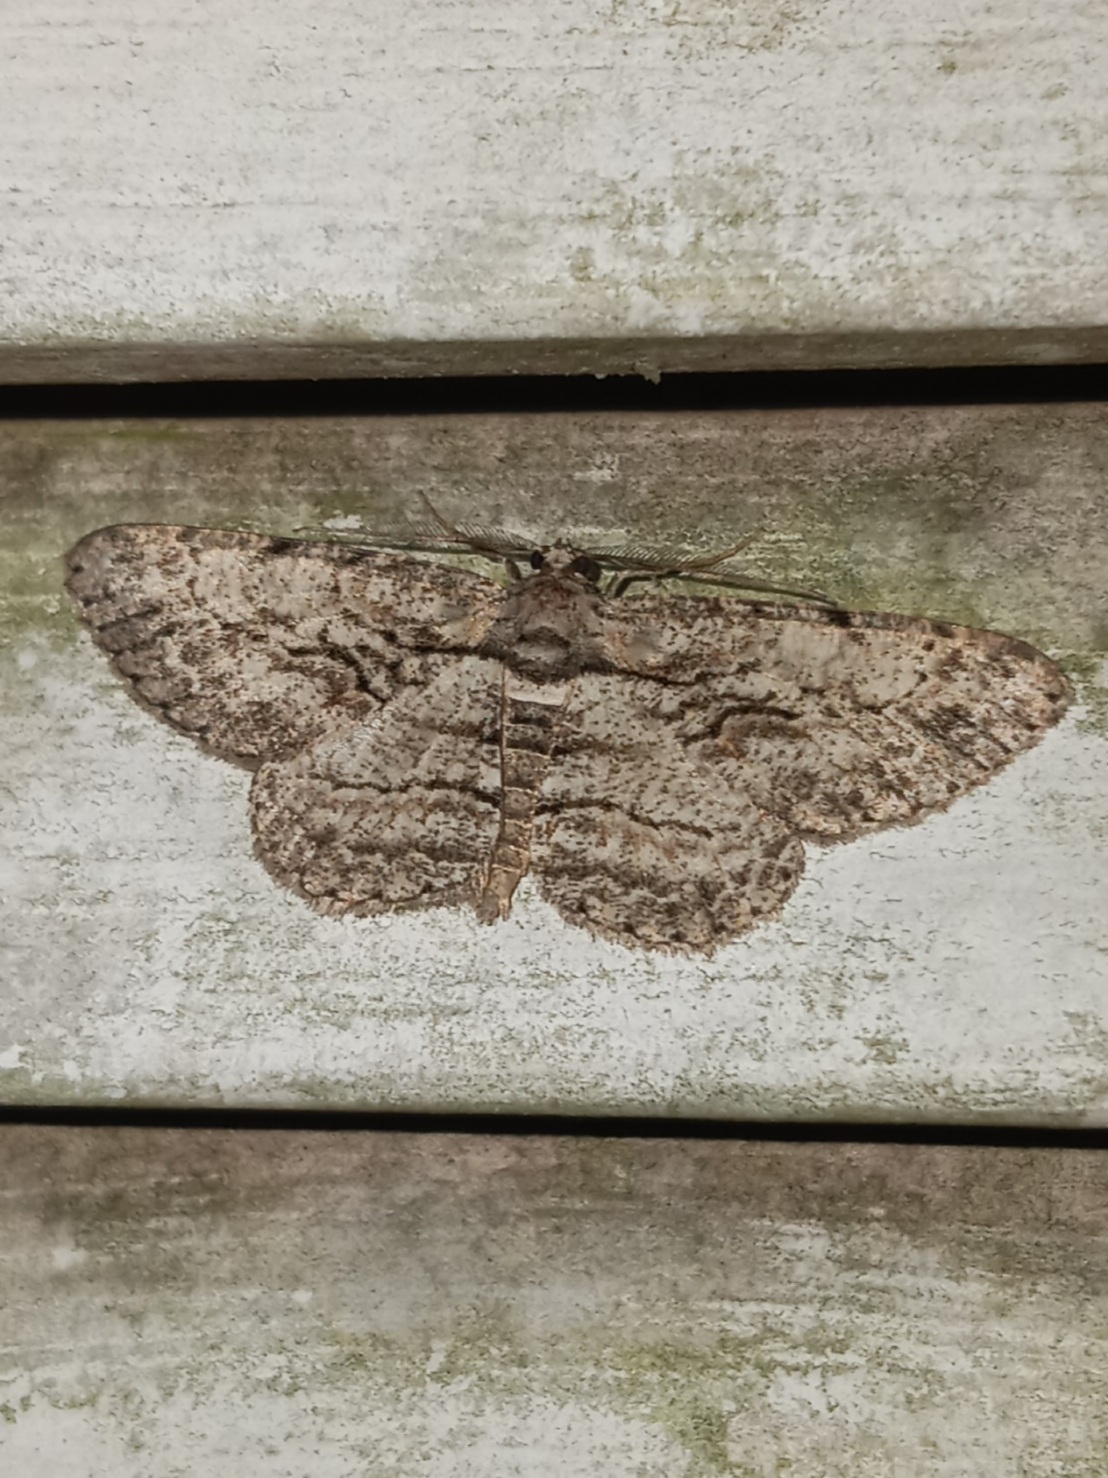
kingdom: Animalia
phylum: Arthropoda
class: Insecta
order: Lepidoptera
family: Geometridae
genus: Anavitrinella
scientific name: Anavitrinella pampinaria
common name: Common gray
